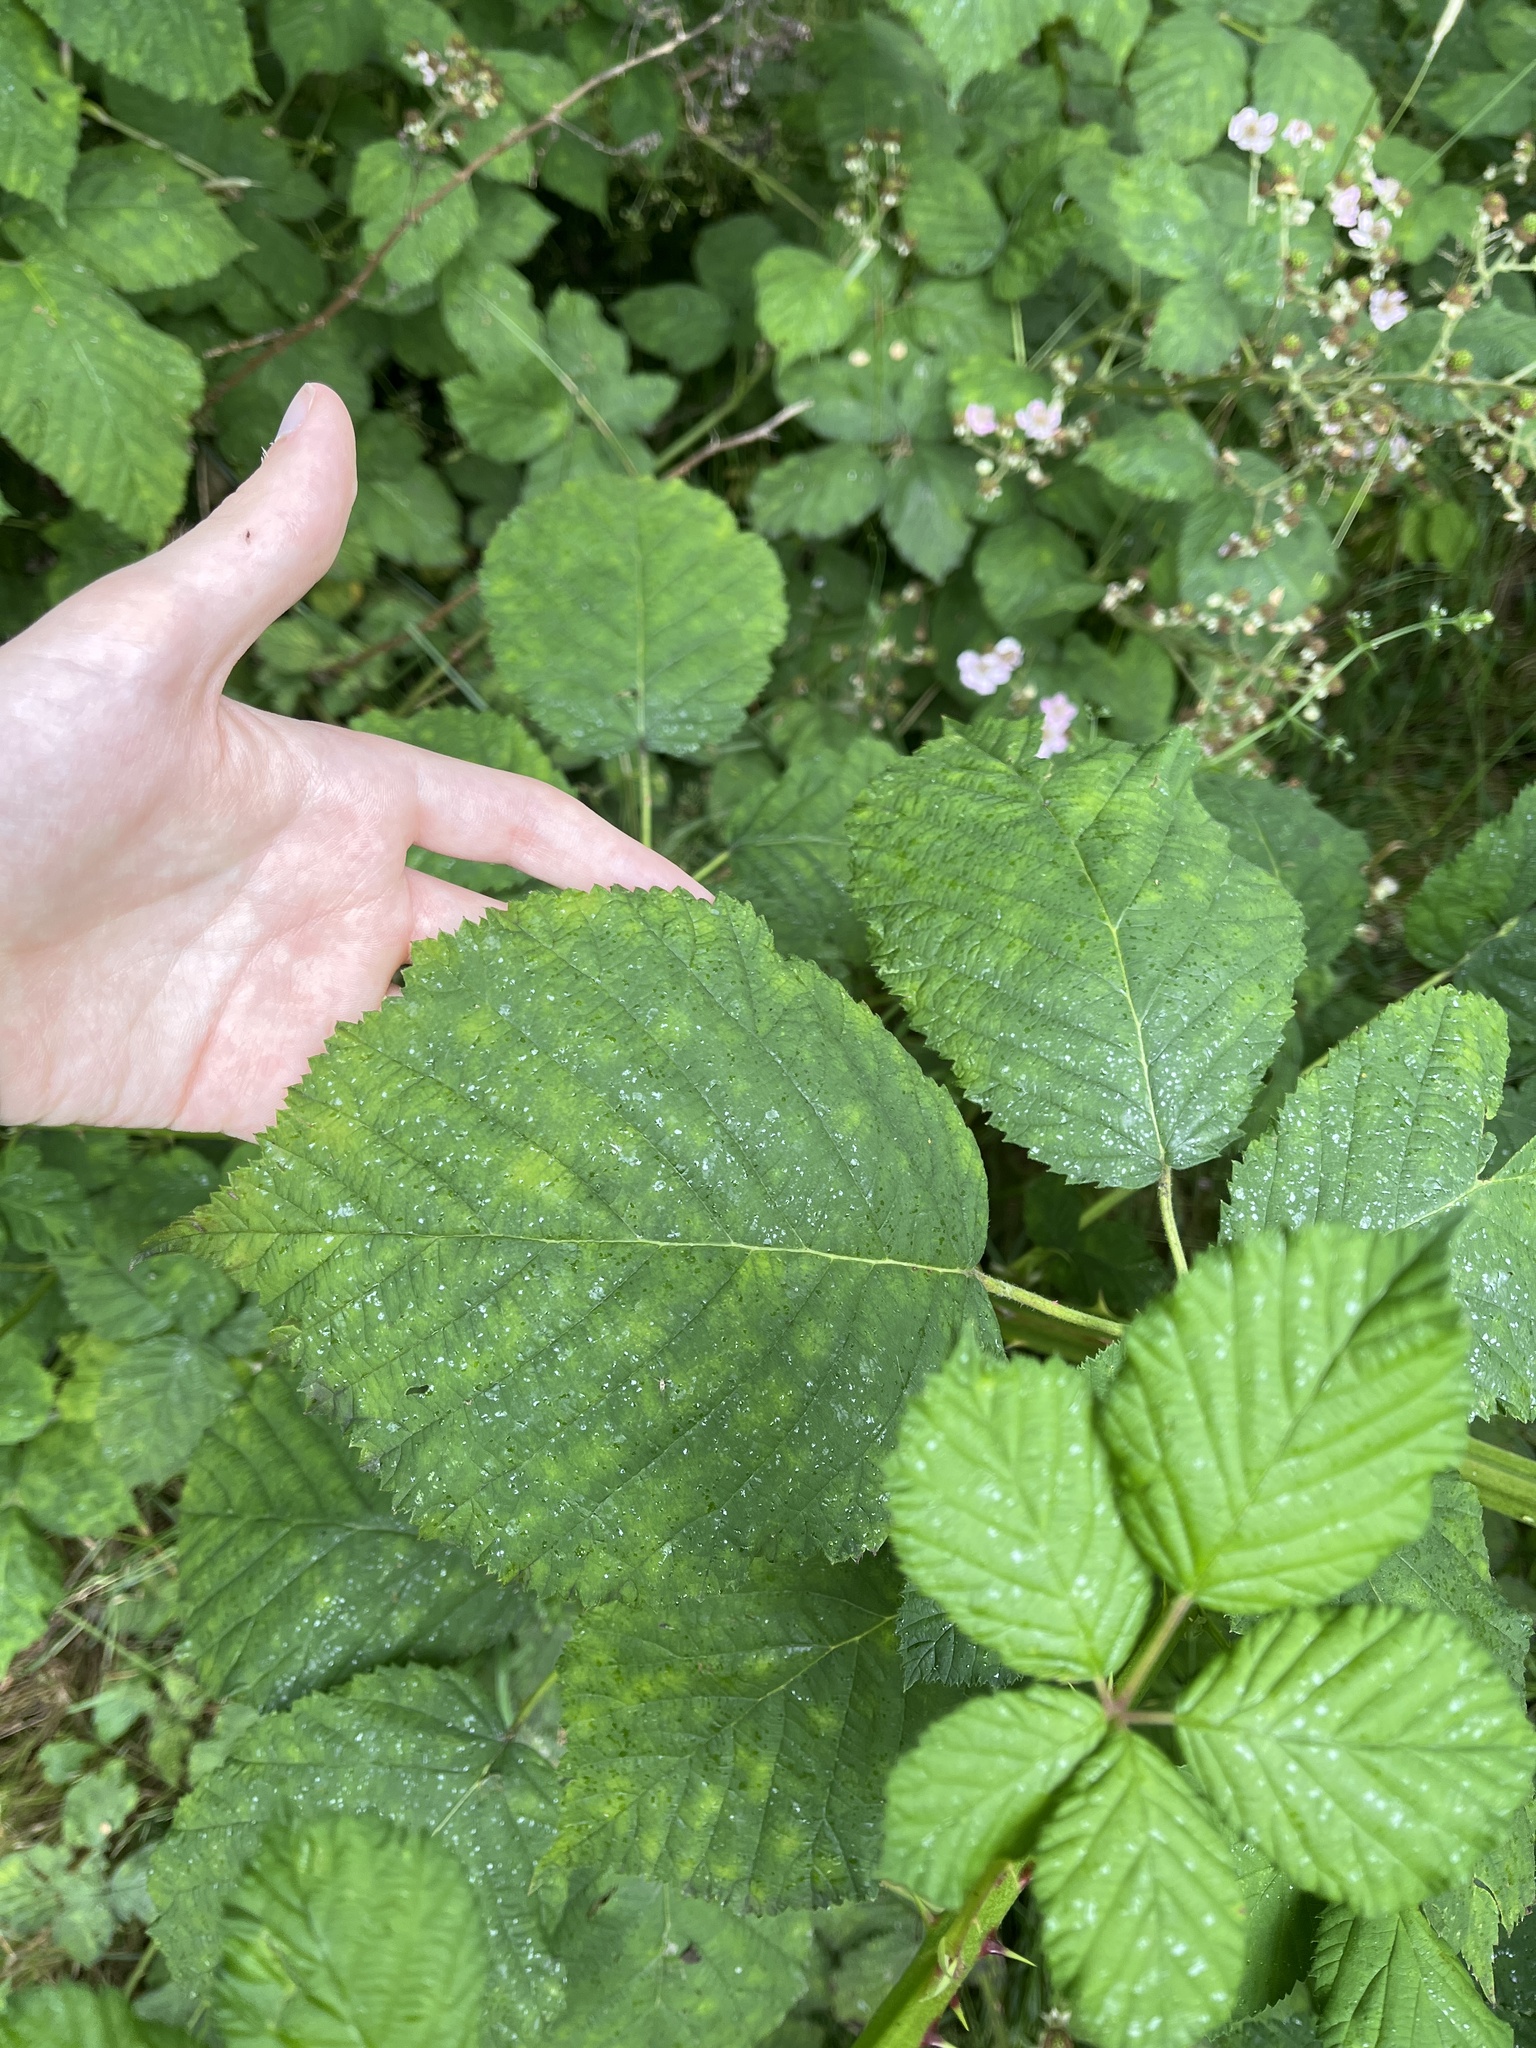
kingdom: Plantae
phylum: Tracheophyta
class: Magnoliopsida
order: Rosales
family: Rosaceae
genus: Rubus
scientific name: Rubus armeniacus
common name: Himalayan blackberry
